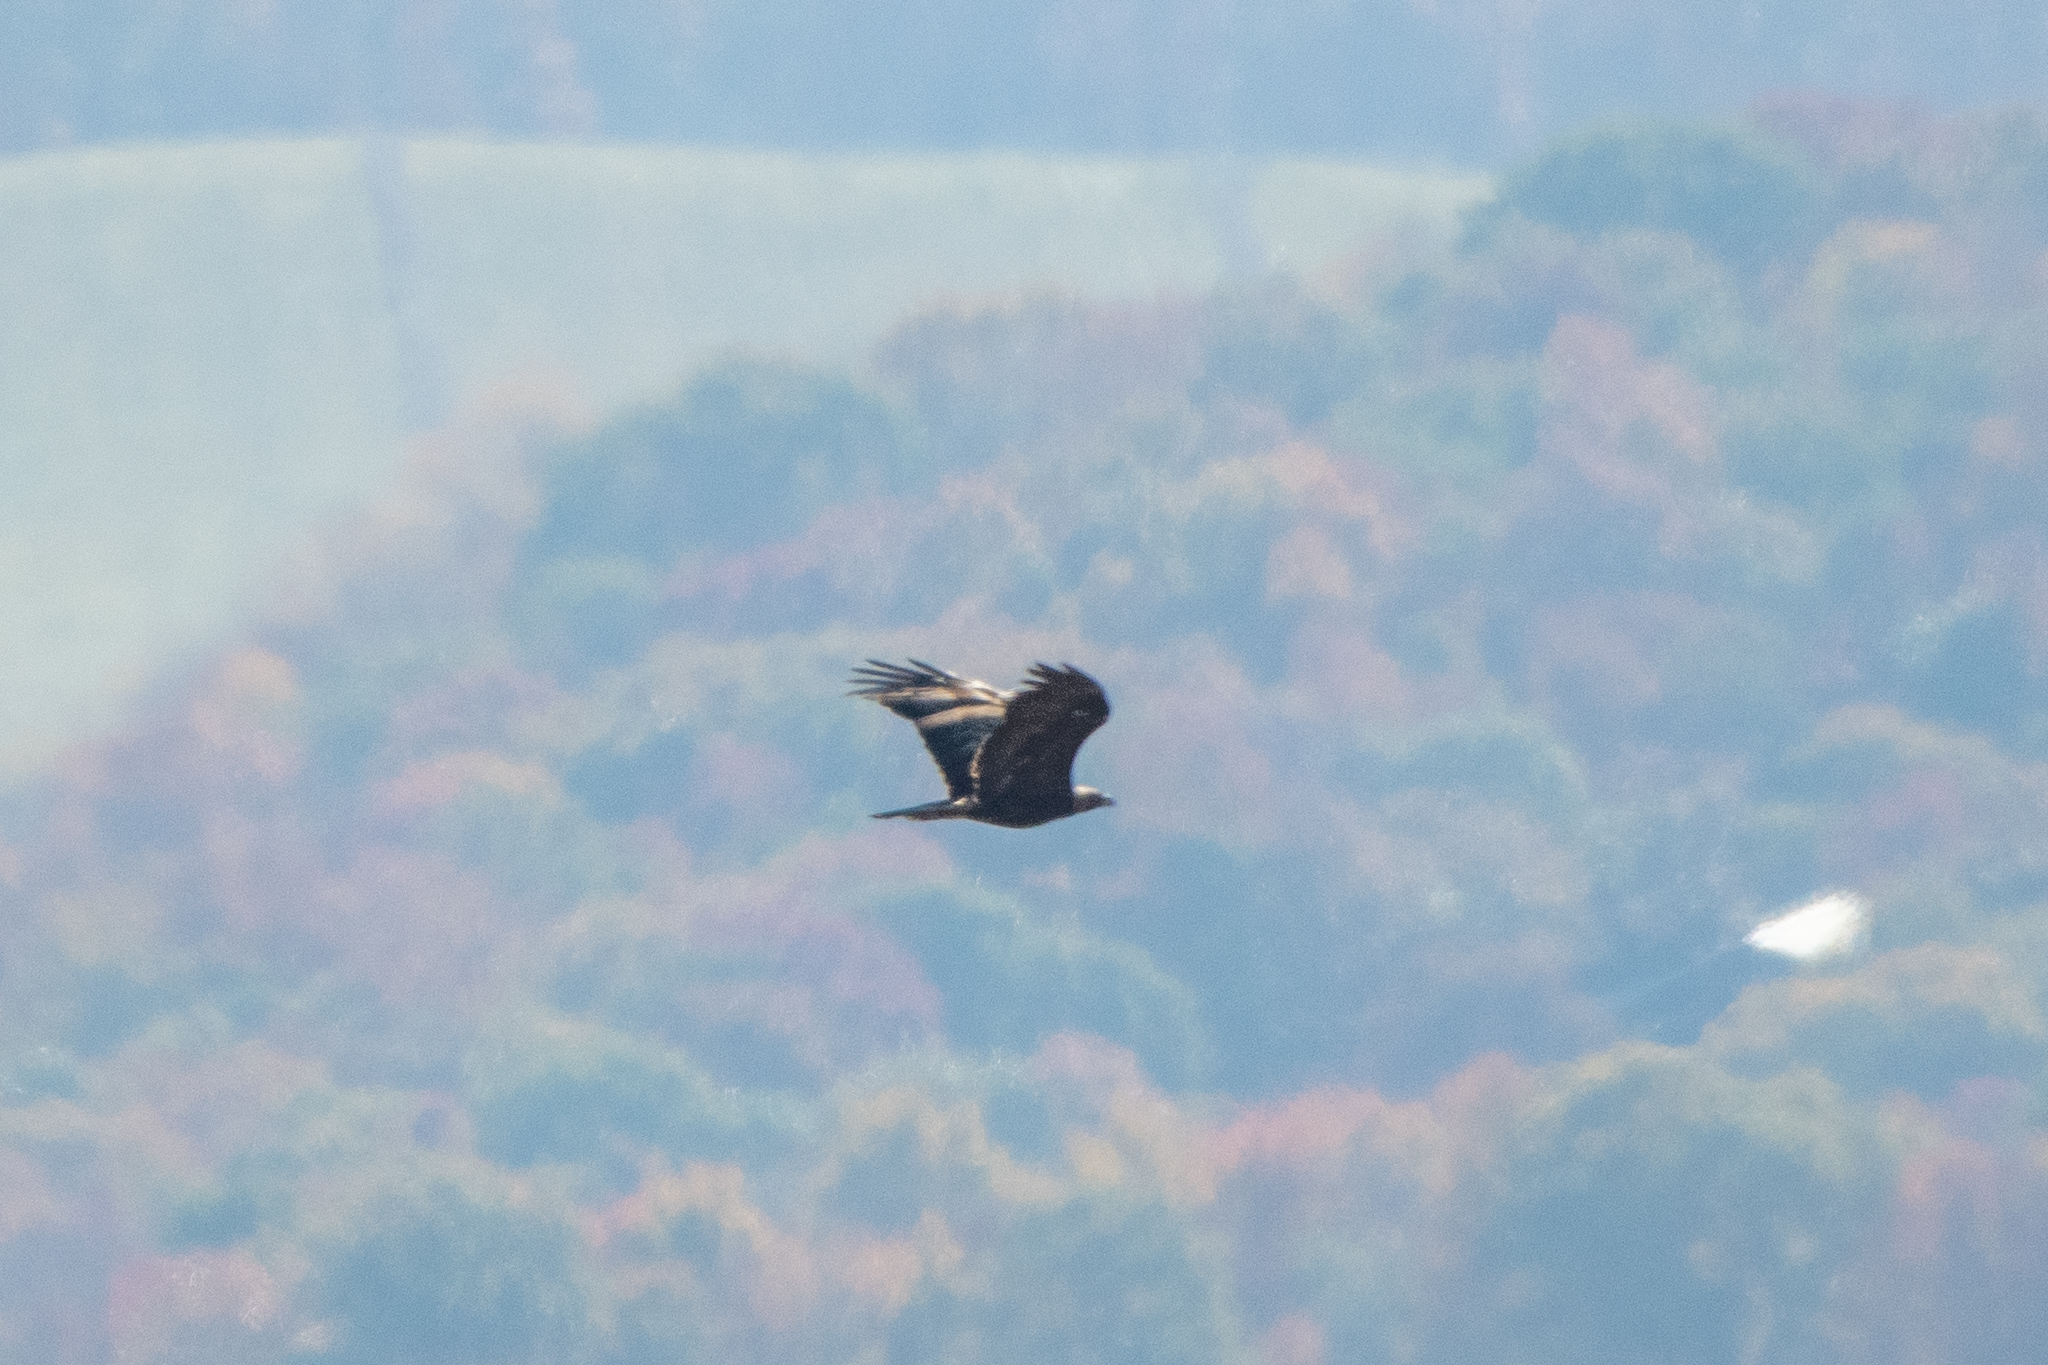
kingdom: Animalia
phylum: Chordata
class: Aves
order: Accipitriformes
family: Accipitridae
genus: Aquila
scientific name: Aquila chrysaetos
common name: Golden eagle
